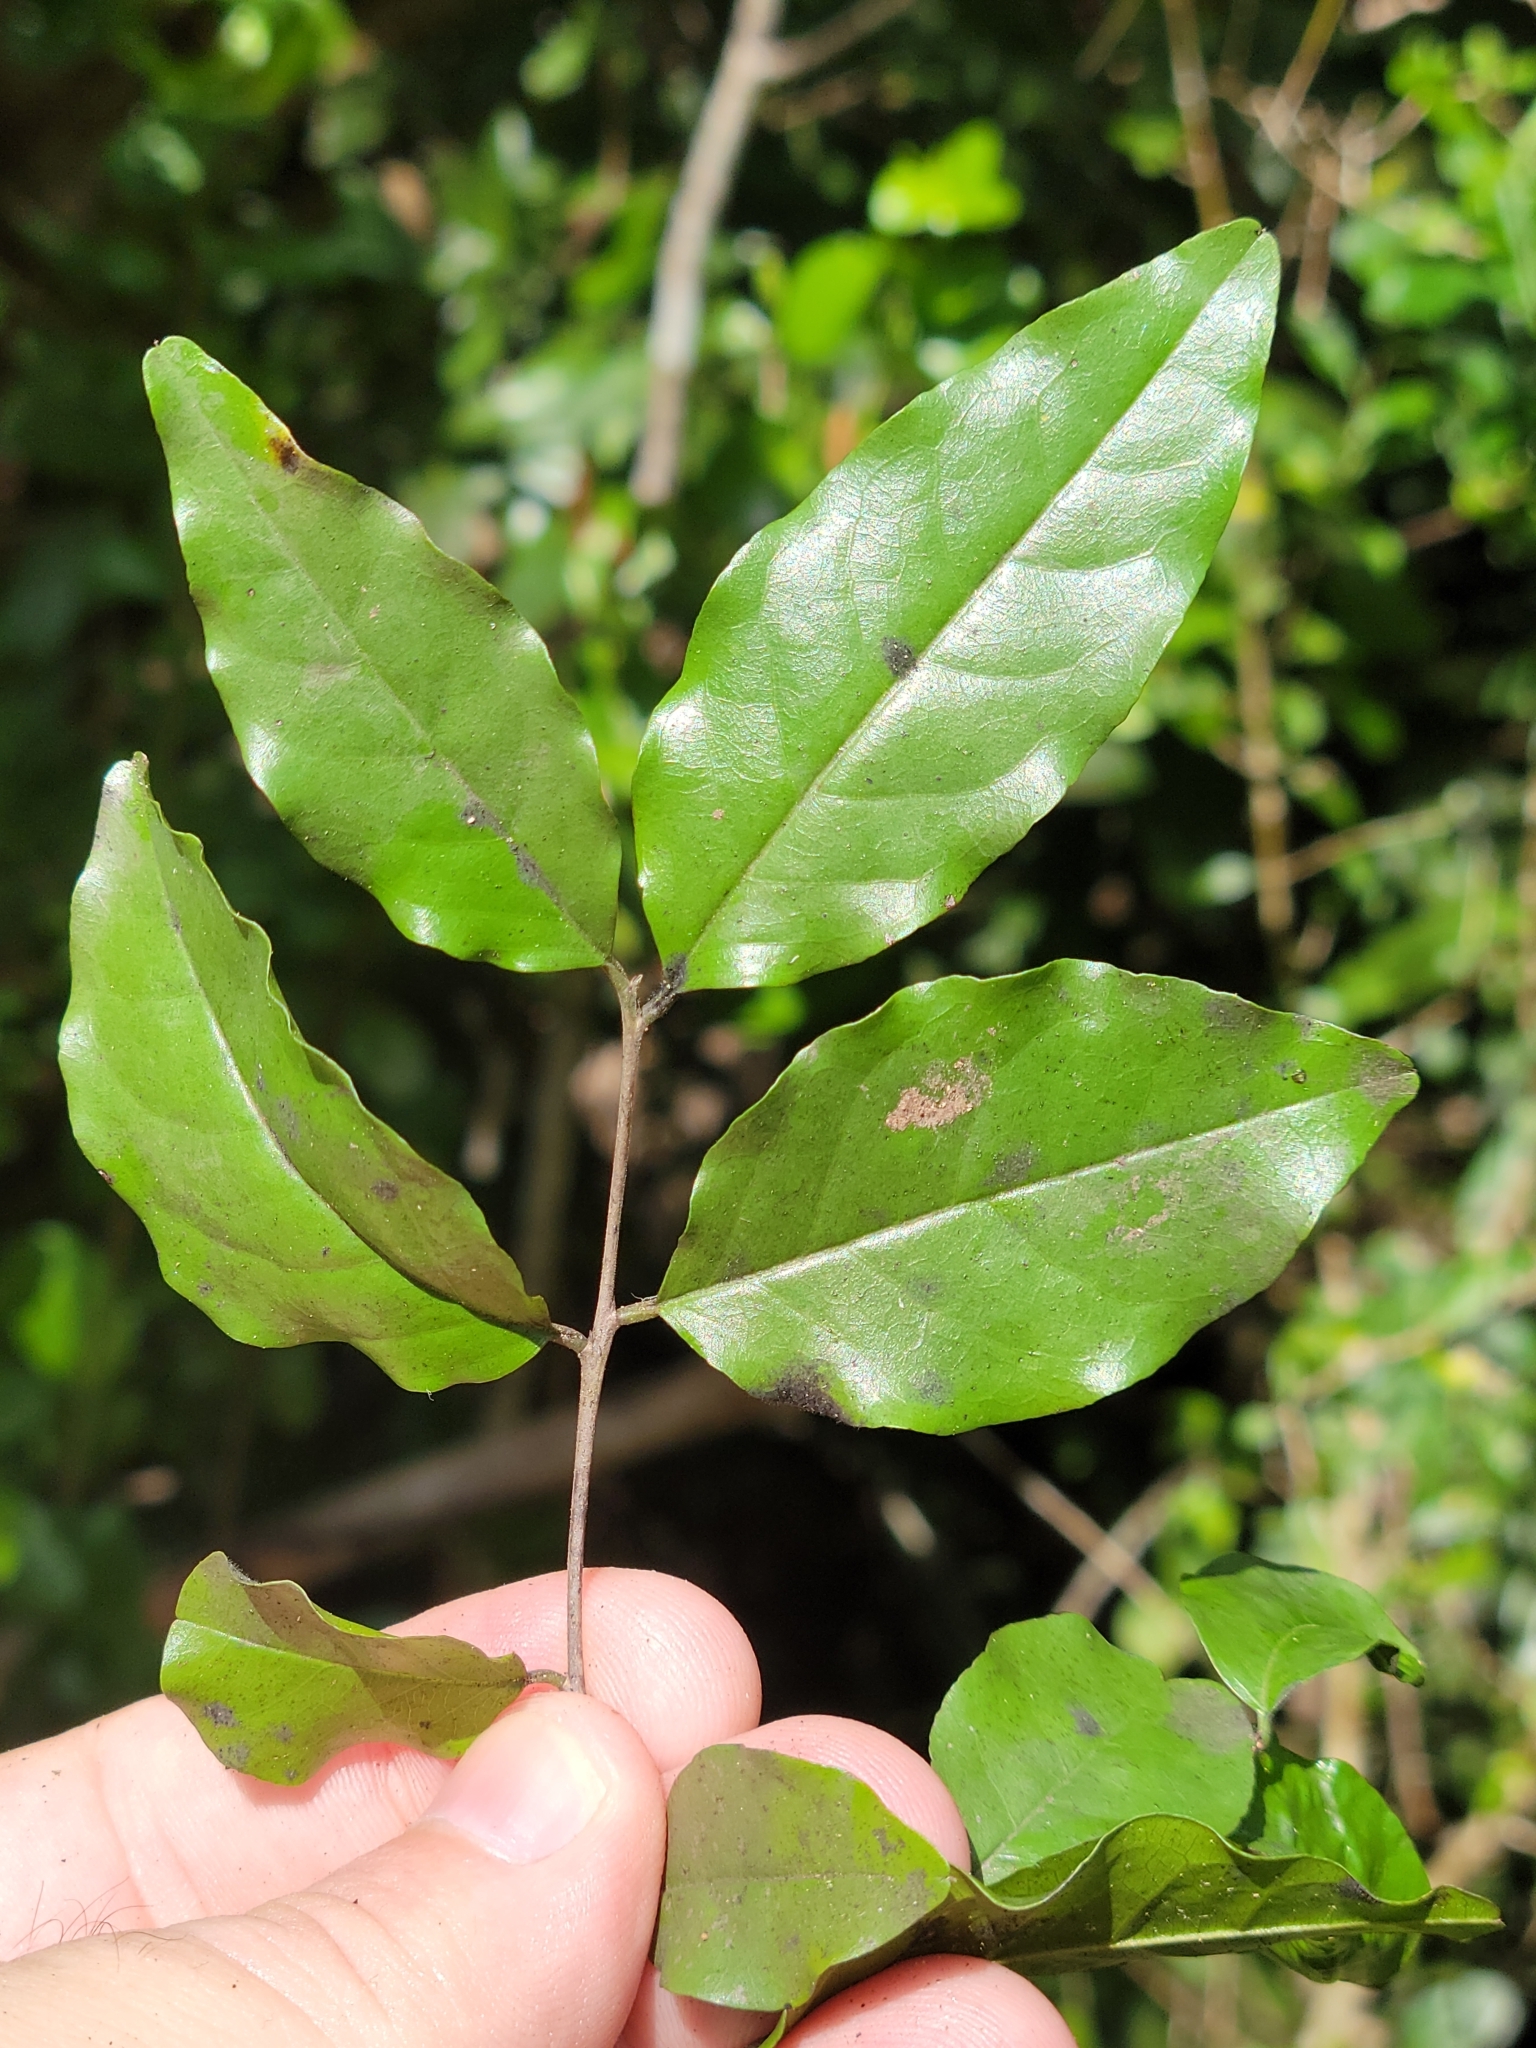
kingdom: Plantae
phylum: Tracheophyta
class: Magnoliopsida
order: Rosales
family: Rhamnaceae
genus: Krugiodendron
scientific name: Krugiodendron ferreum
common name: Iron wood
